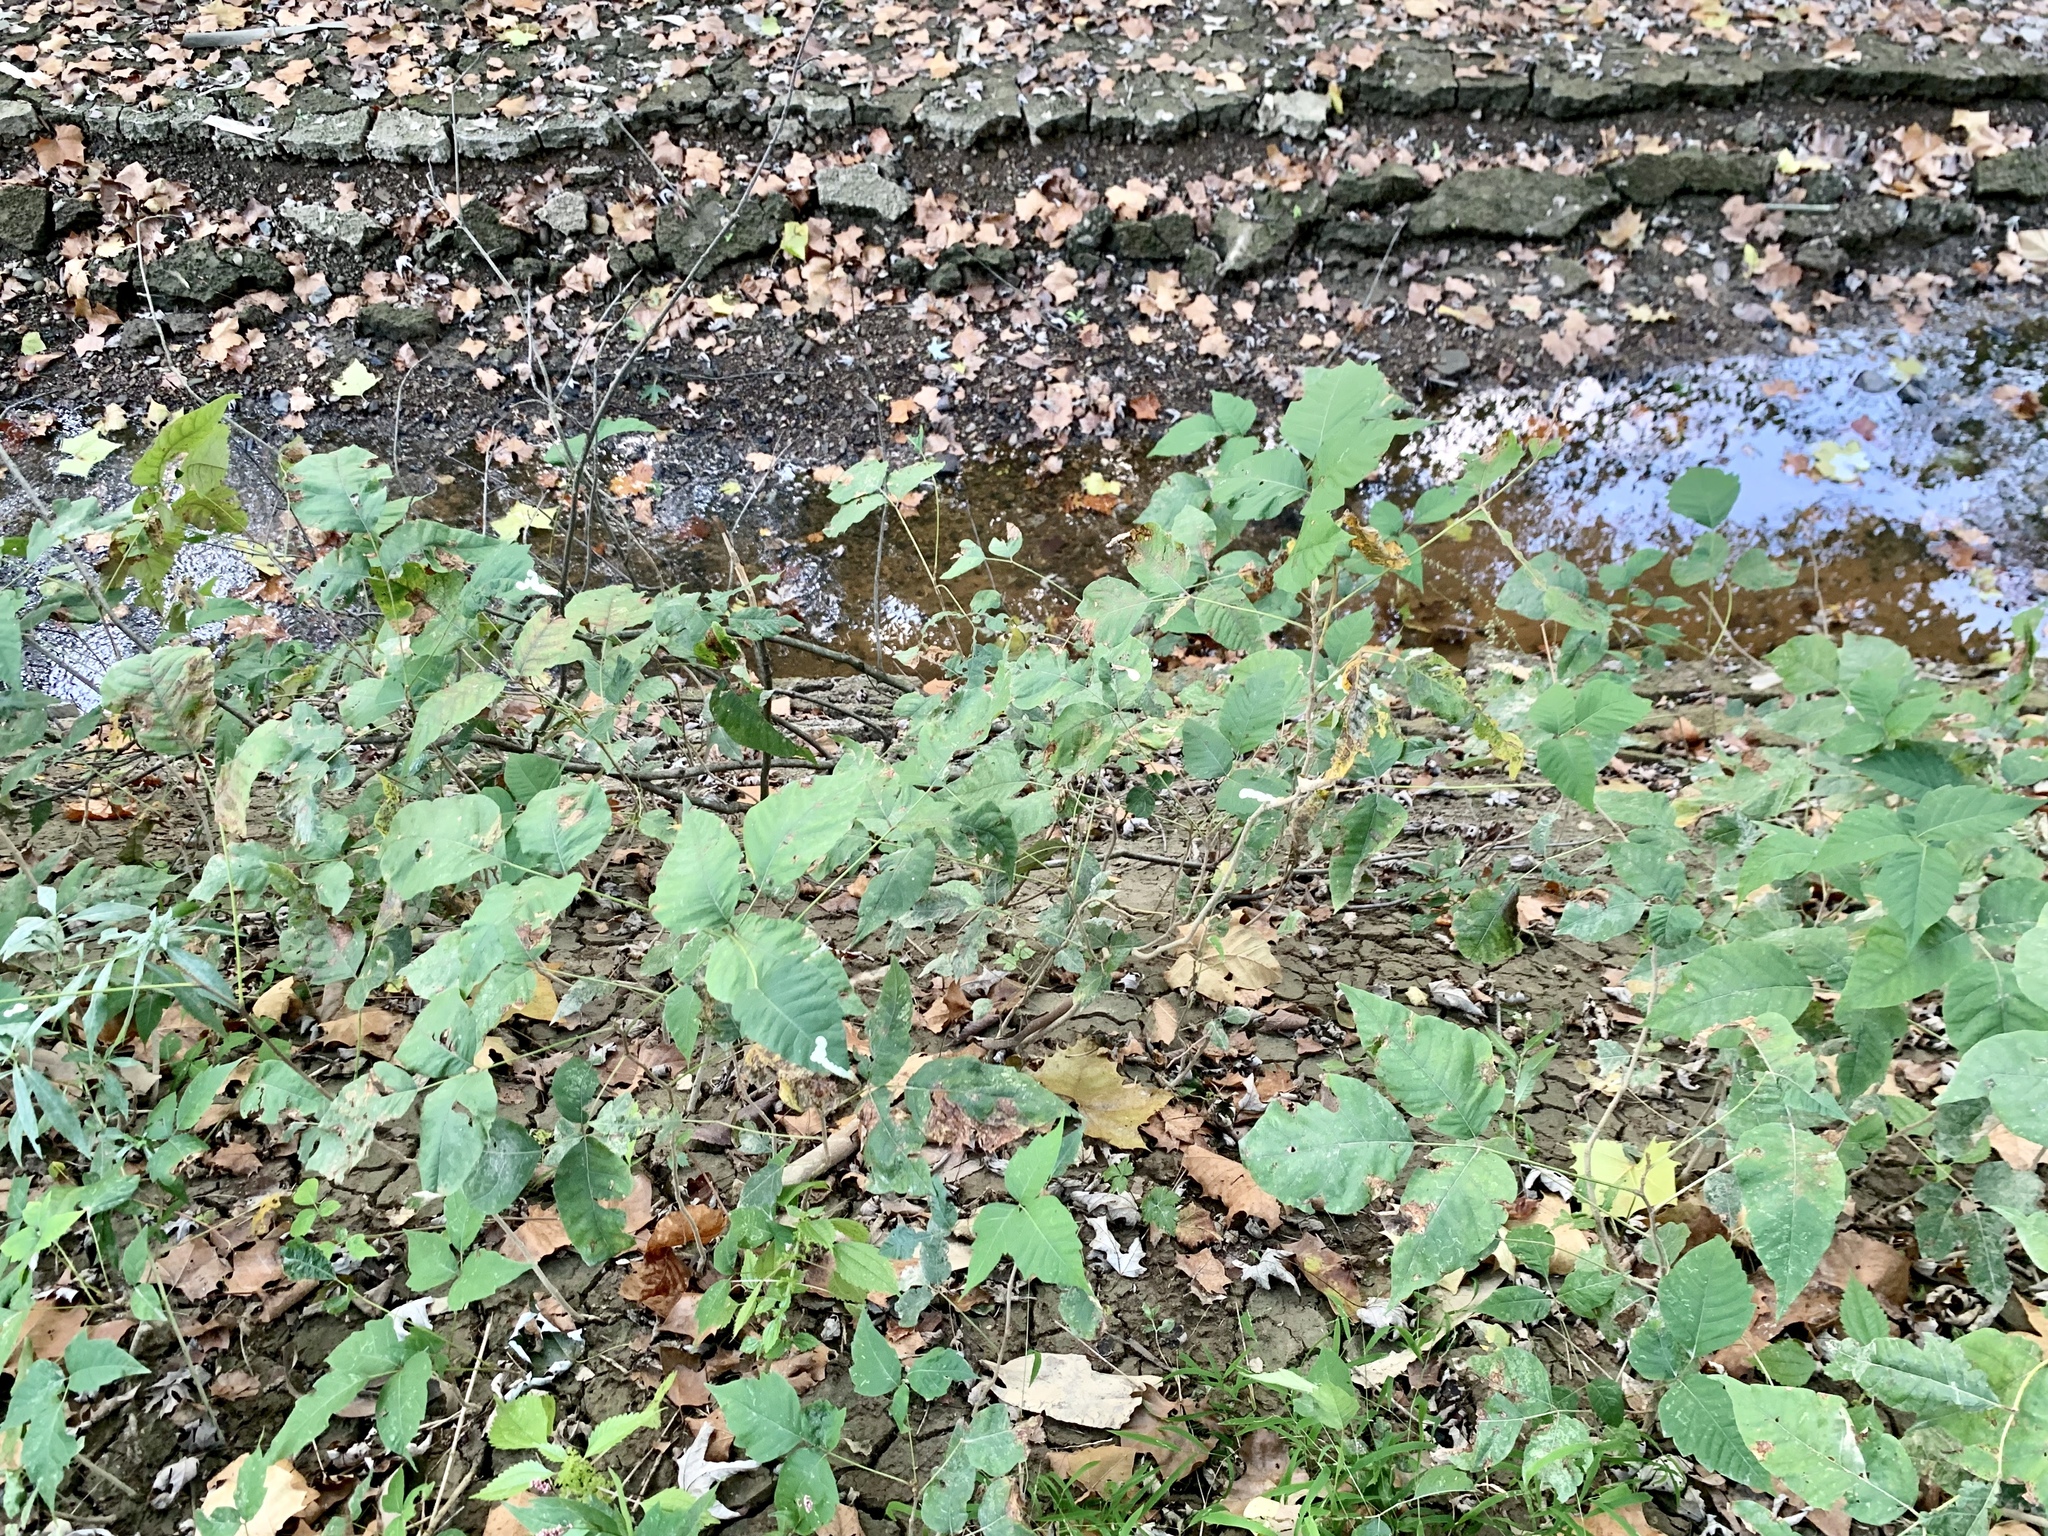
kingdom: Plantae
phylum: Tracheophyta
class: Magnoliopsida
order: Sapindales
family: Anacardiaceae
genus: Toxicodendron
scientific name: Toxicodendron radicans
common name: Poison ivy
